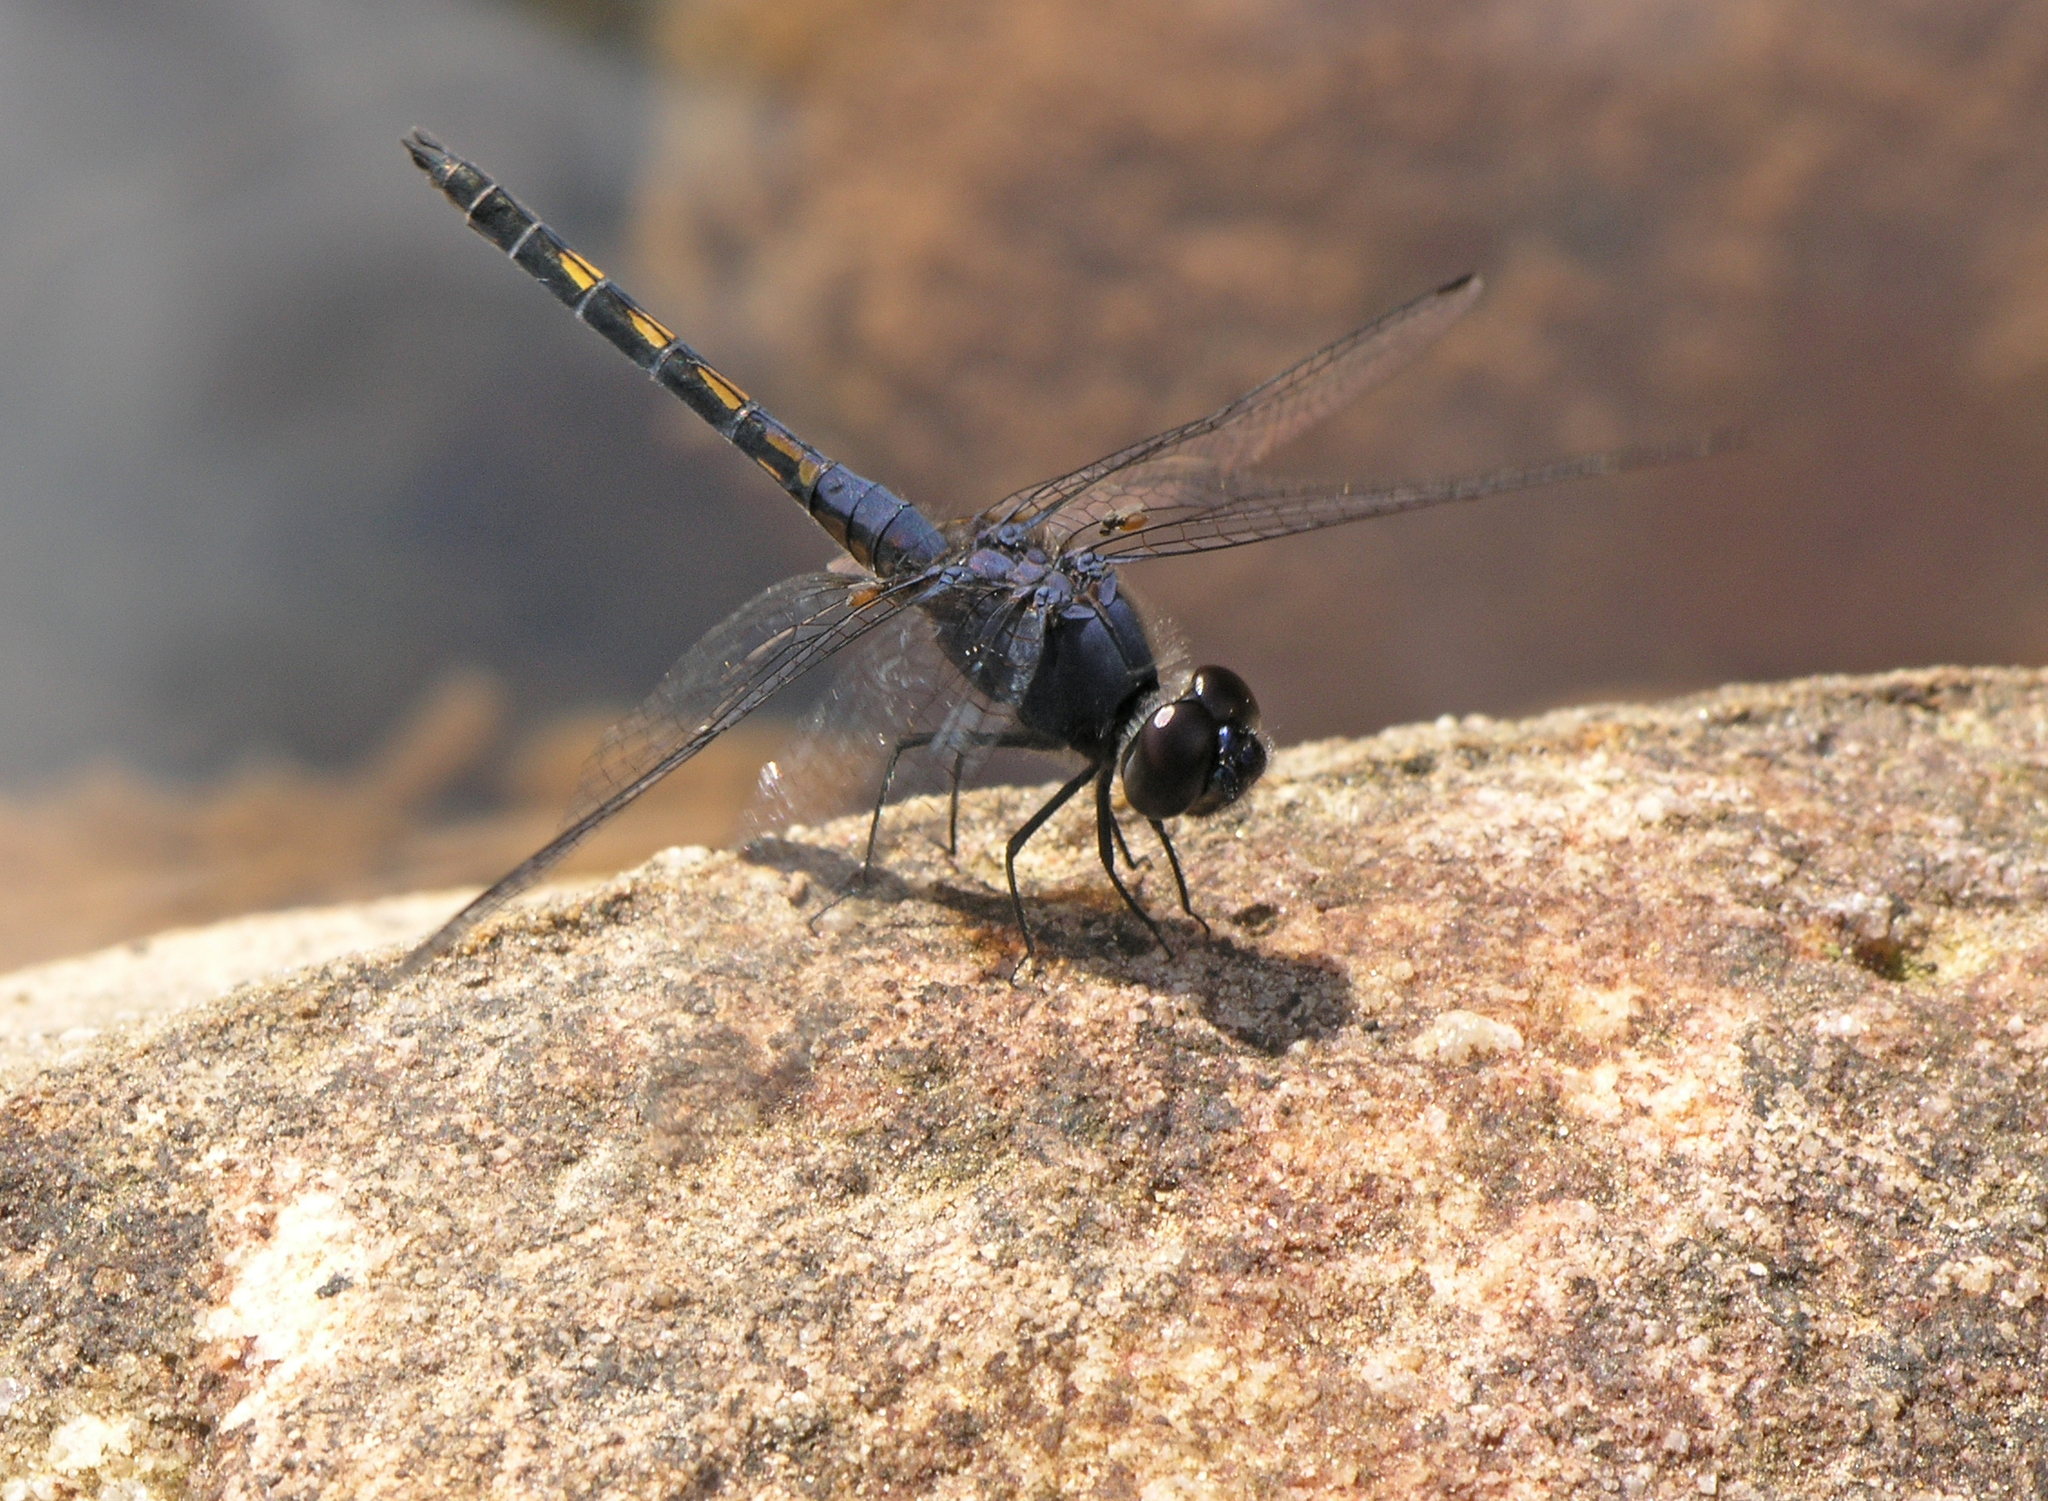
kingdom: Animalia
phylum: Arthropoda
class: Insecta
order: Odonata
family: Libellulidae
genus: Trithemis
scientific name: Trithemis festiva
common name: Indigo dropwing
